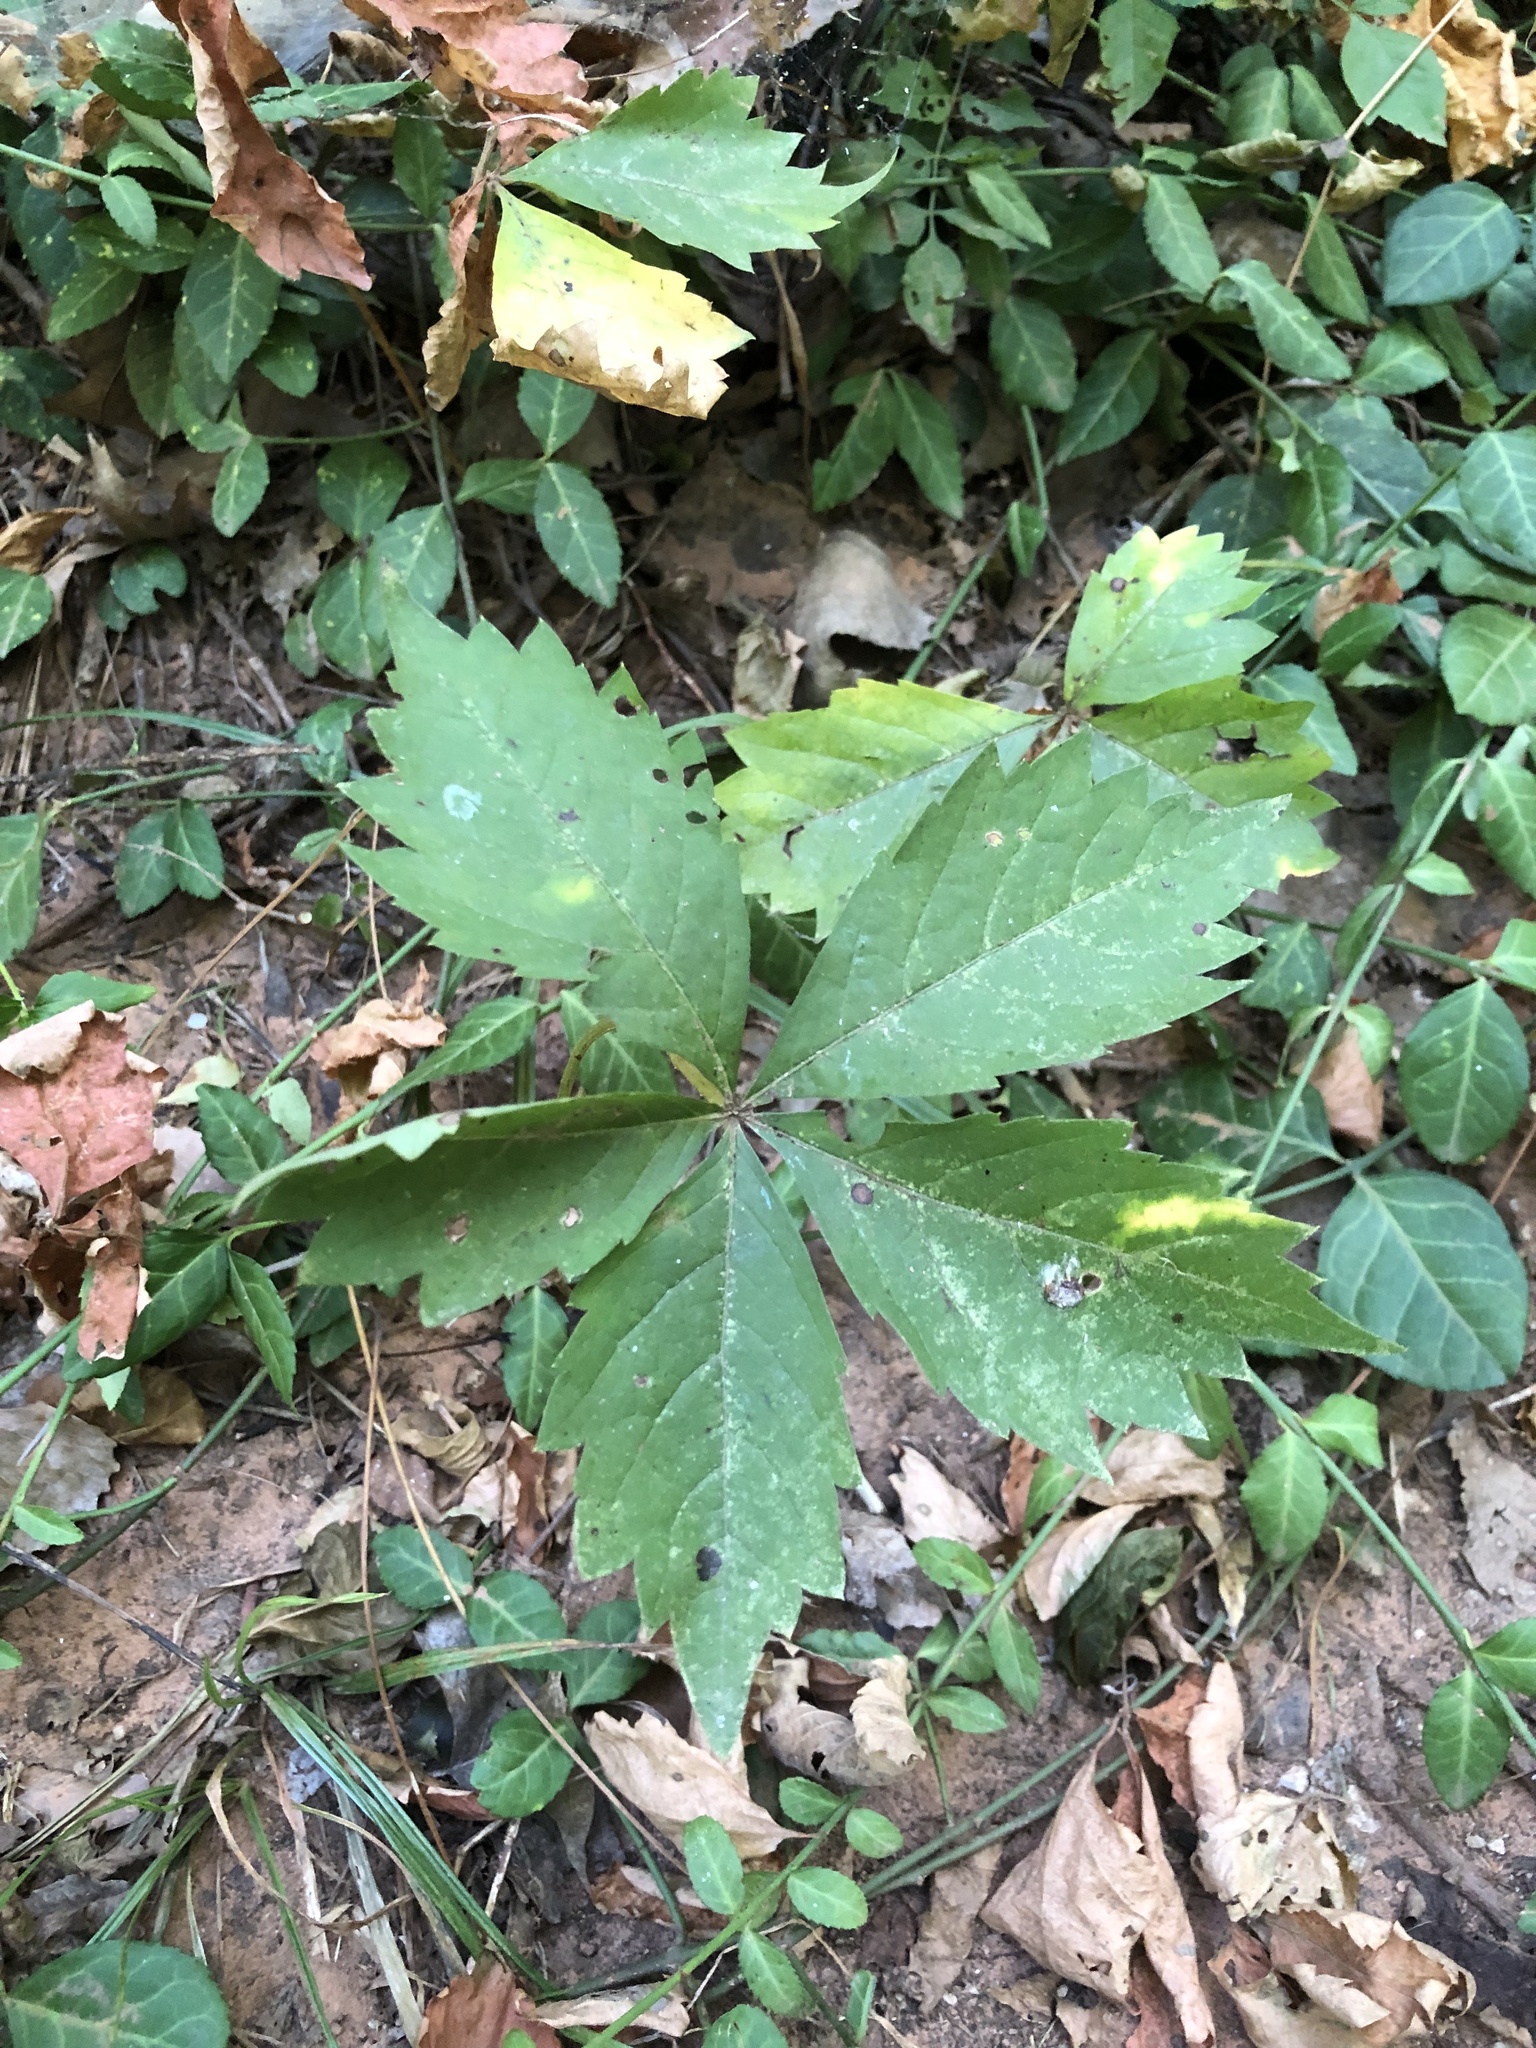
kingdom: Plantae
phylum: Tracheophyta
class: Magnoliopsida
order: Vitales
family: Vitaceae
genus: Parthenocissus
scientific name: Parthenocissus quinquefolia
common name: Virginia-creeper
